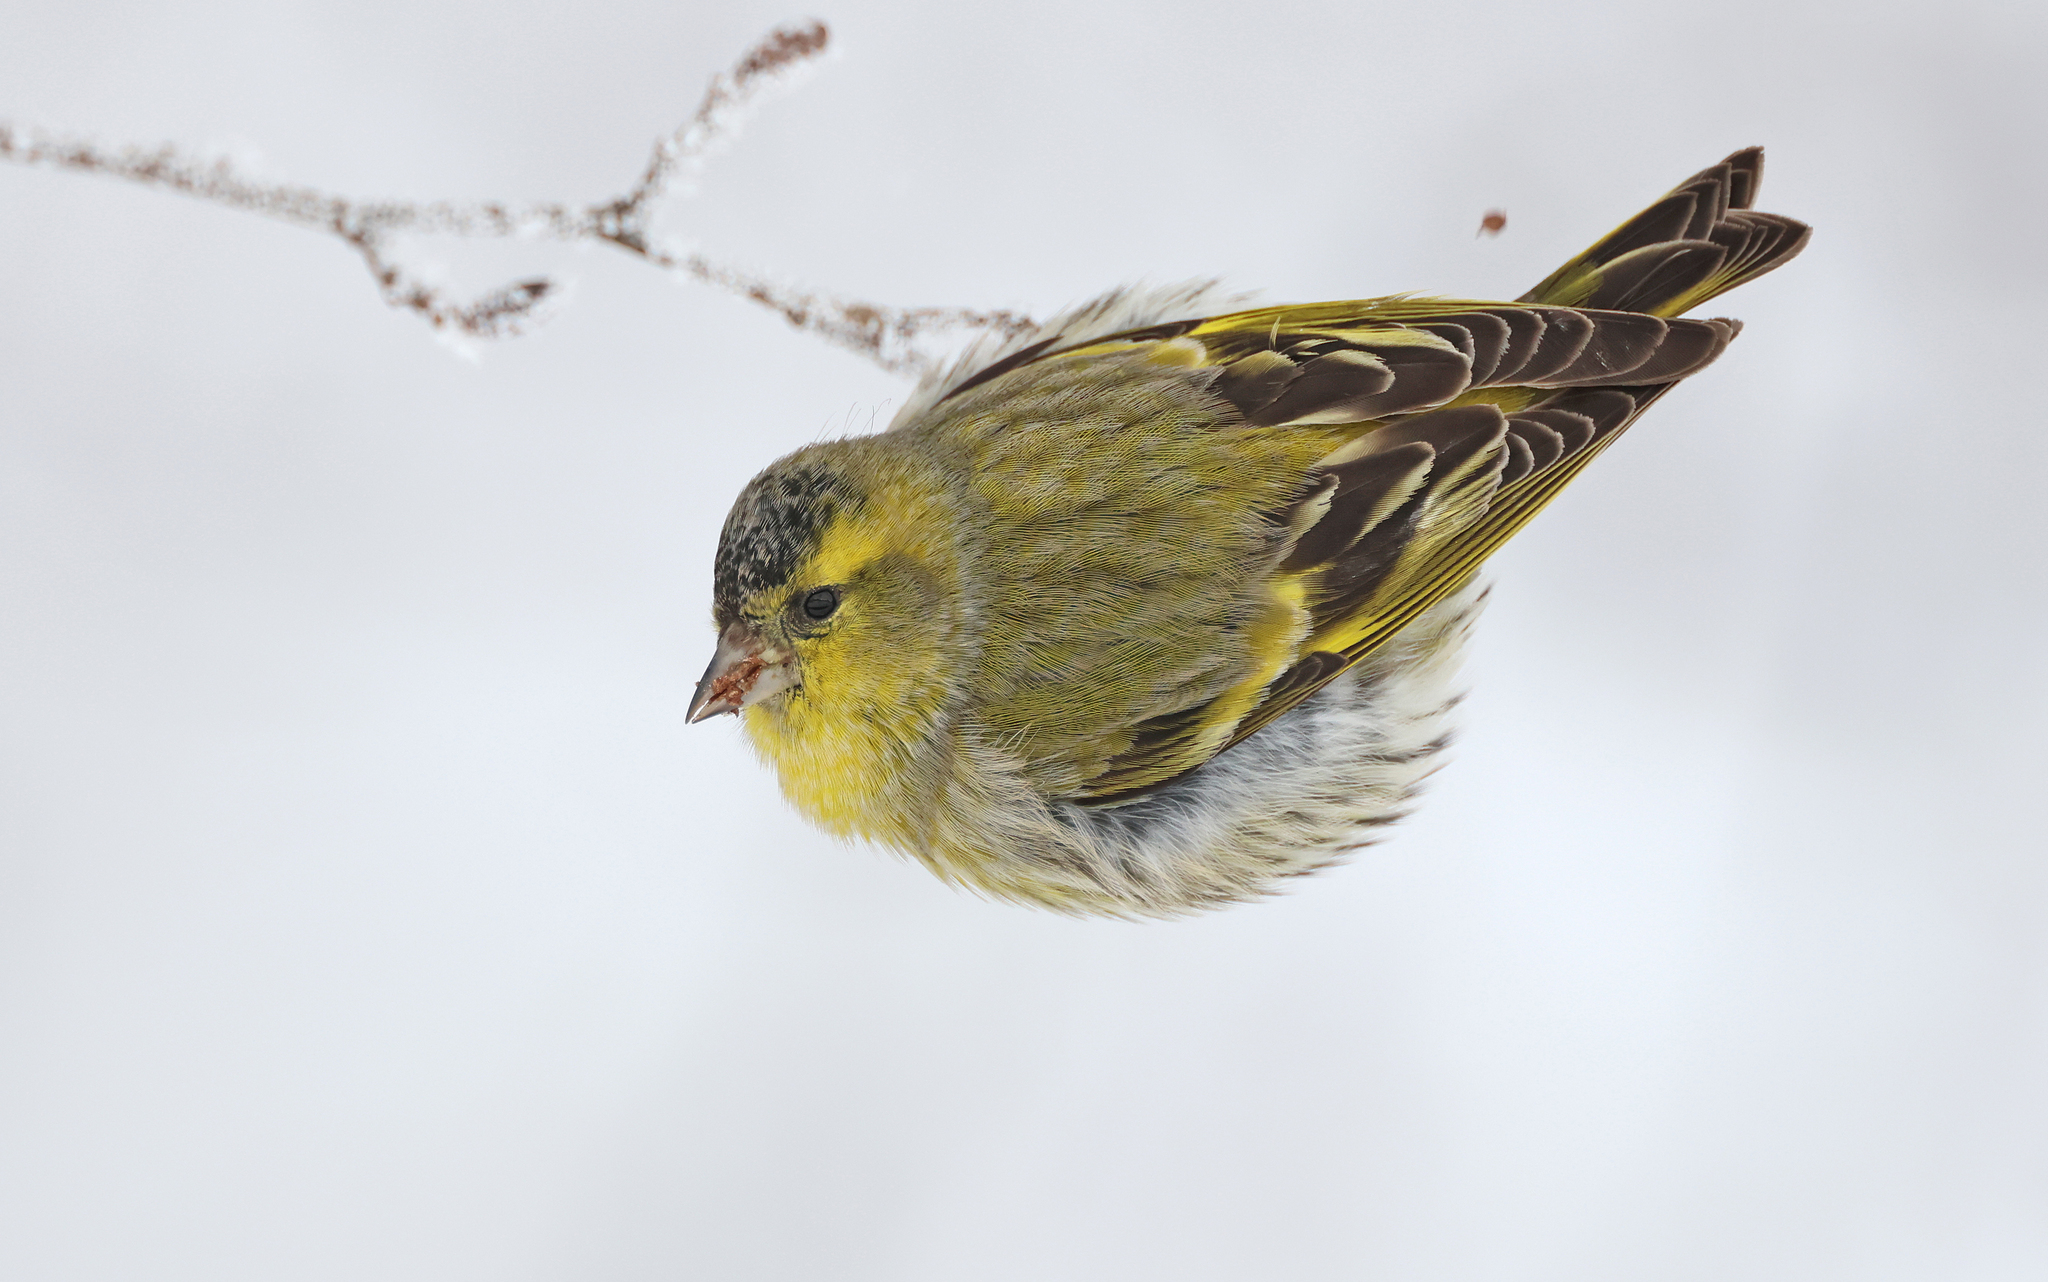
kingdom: Animalia
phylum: Chordata
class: Aves
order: Passeriformes
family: Fringillidae
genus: Spinus
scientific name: Spinus spinus
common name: Eurasian siskin
